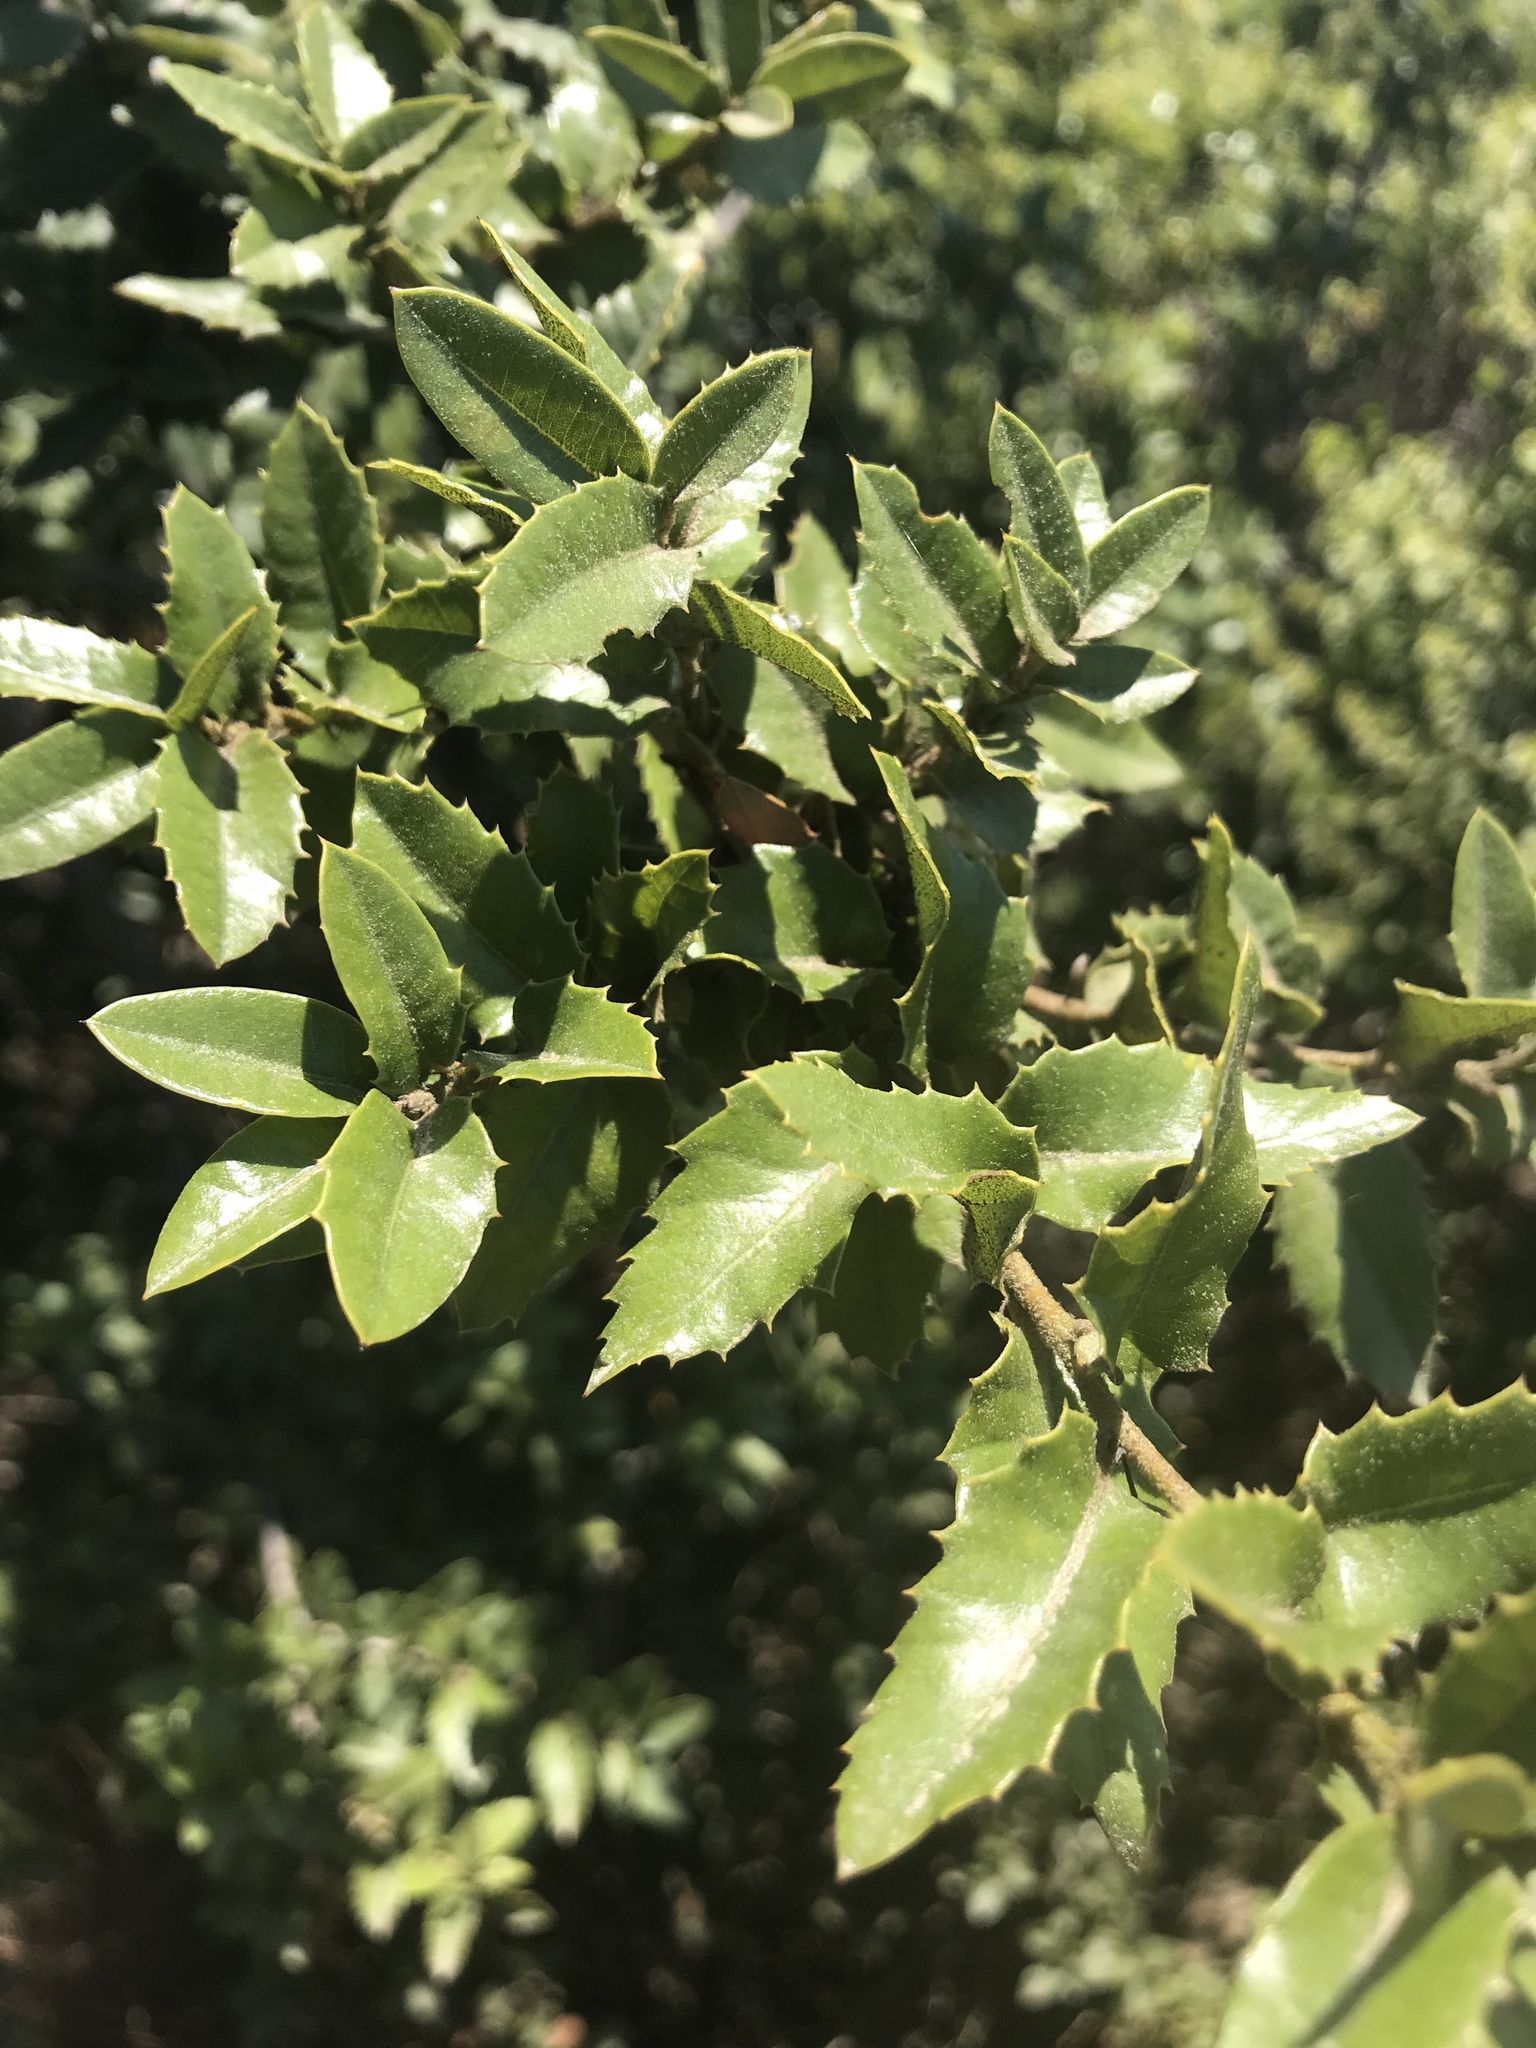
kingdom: Plantae
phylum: Tracheophyta
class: Magnoliopsida
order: Fagales
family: Fagaceae
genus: Quercus
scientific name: Quercus chrysolepis
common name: Canyon live oak
